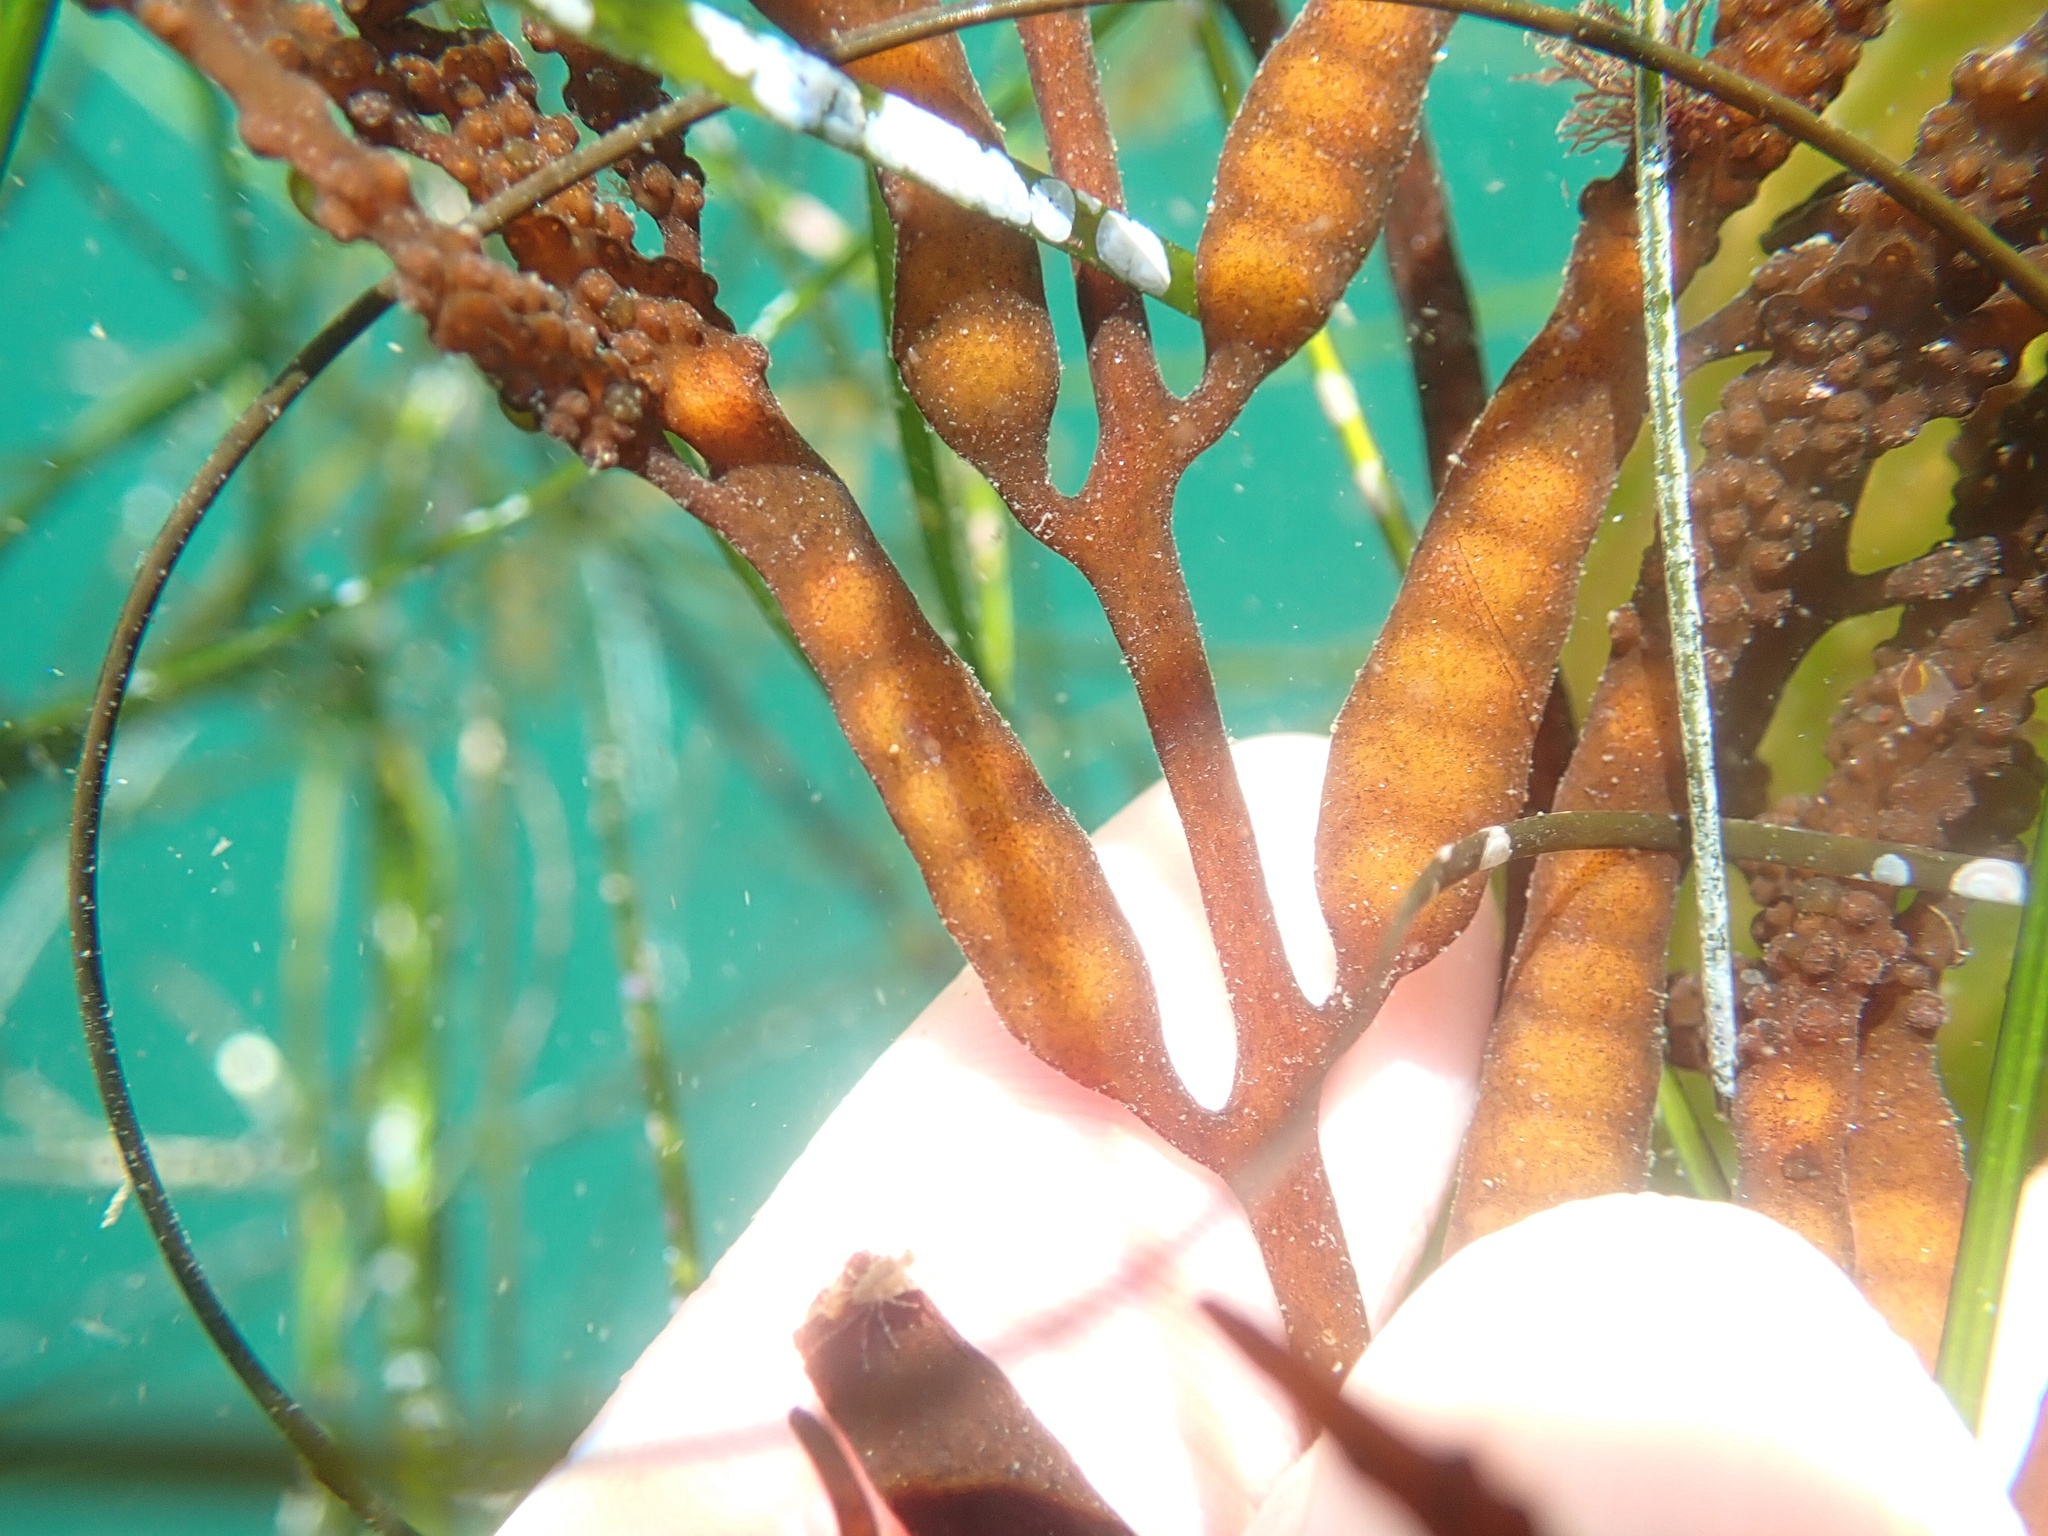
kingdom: Chromista
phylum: Ochrophyta
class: Phaeophyceae
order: Fucales
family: Sargassaceae
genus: Stephanocystis
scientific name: Stephanocystis
